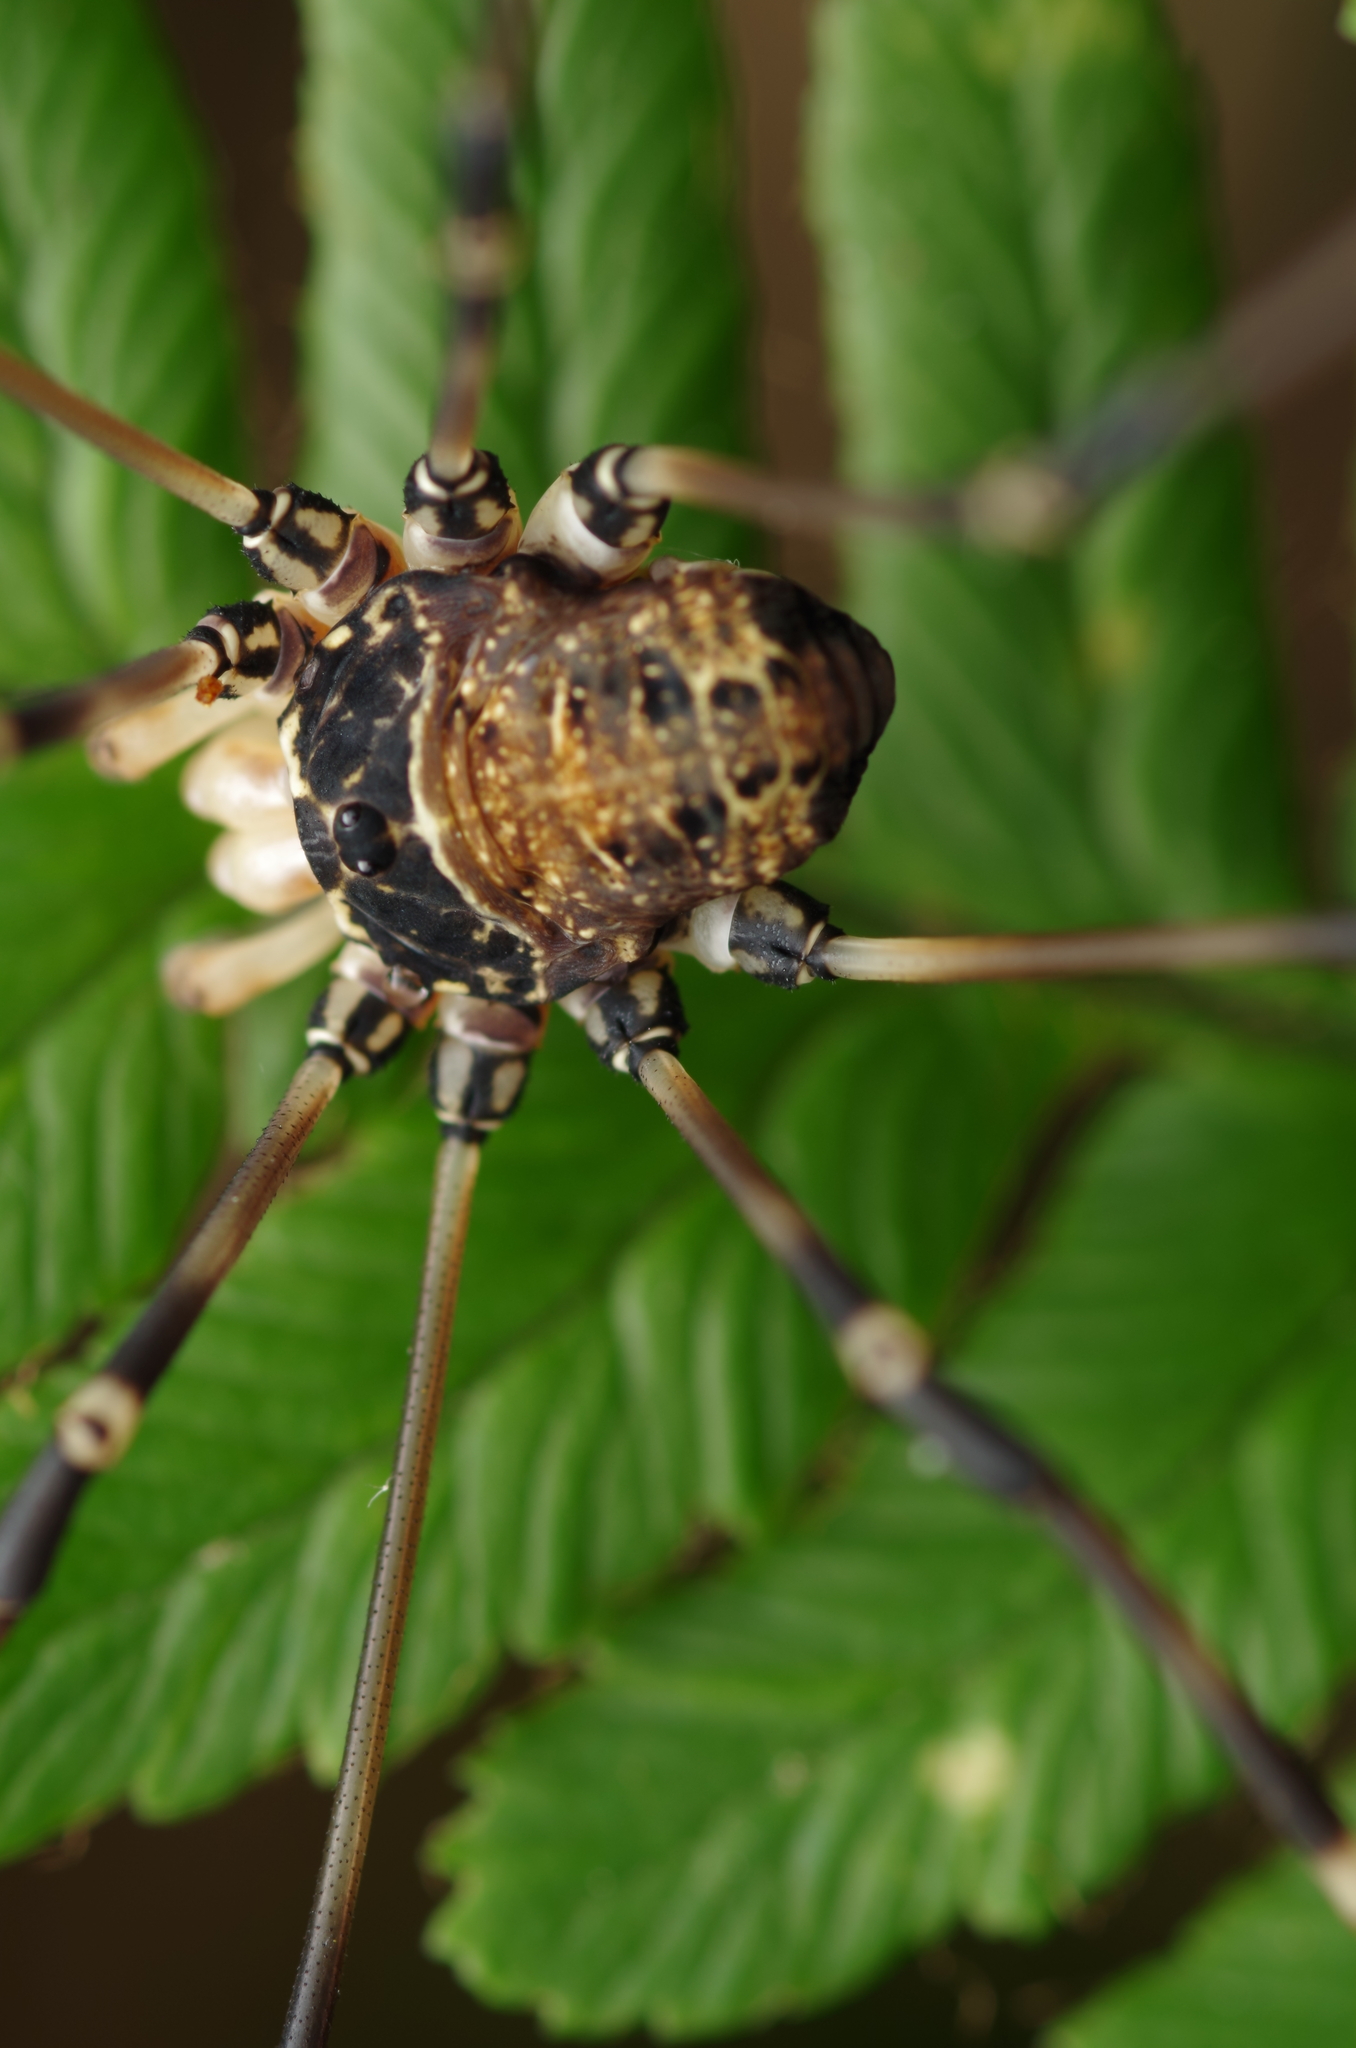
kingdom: Animalia
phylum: Arthropoda
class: Arachnida
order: Opiliones
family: Sclerosomatidae
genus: Gyas
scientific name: Gyas titanus
